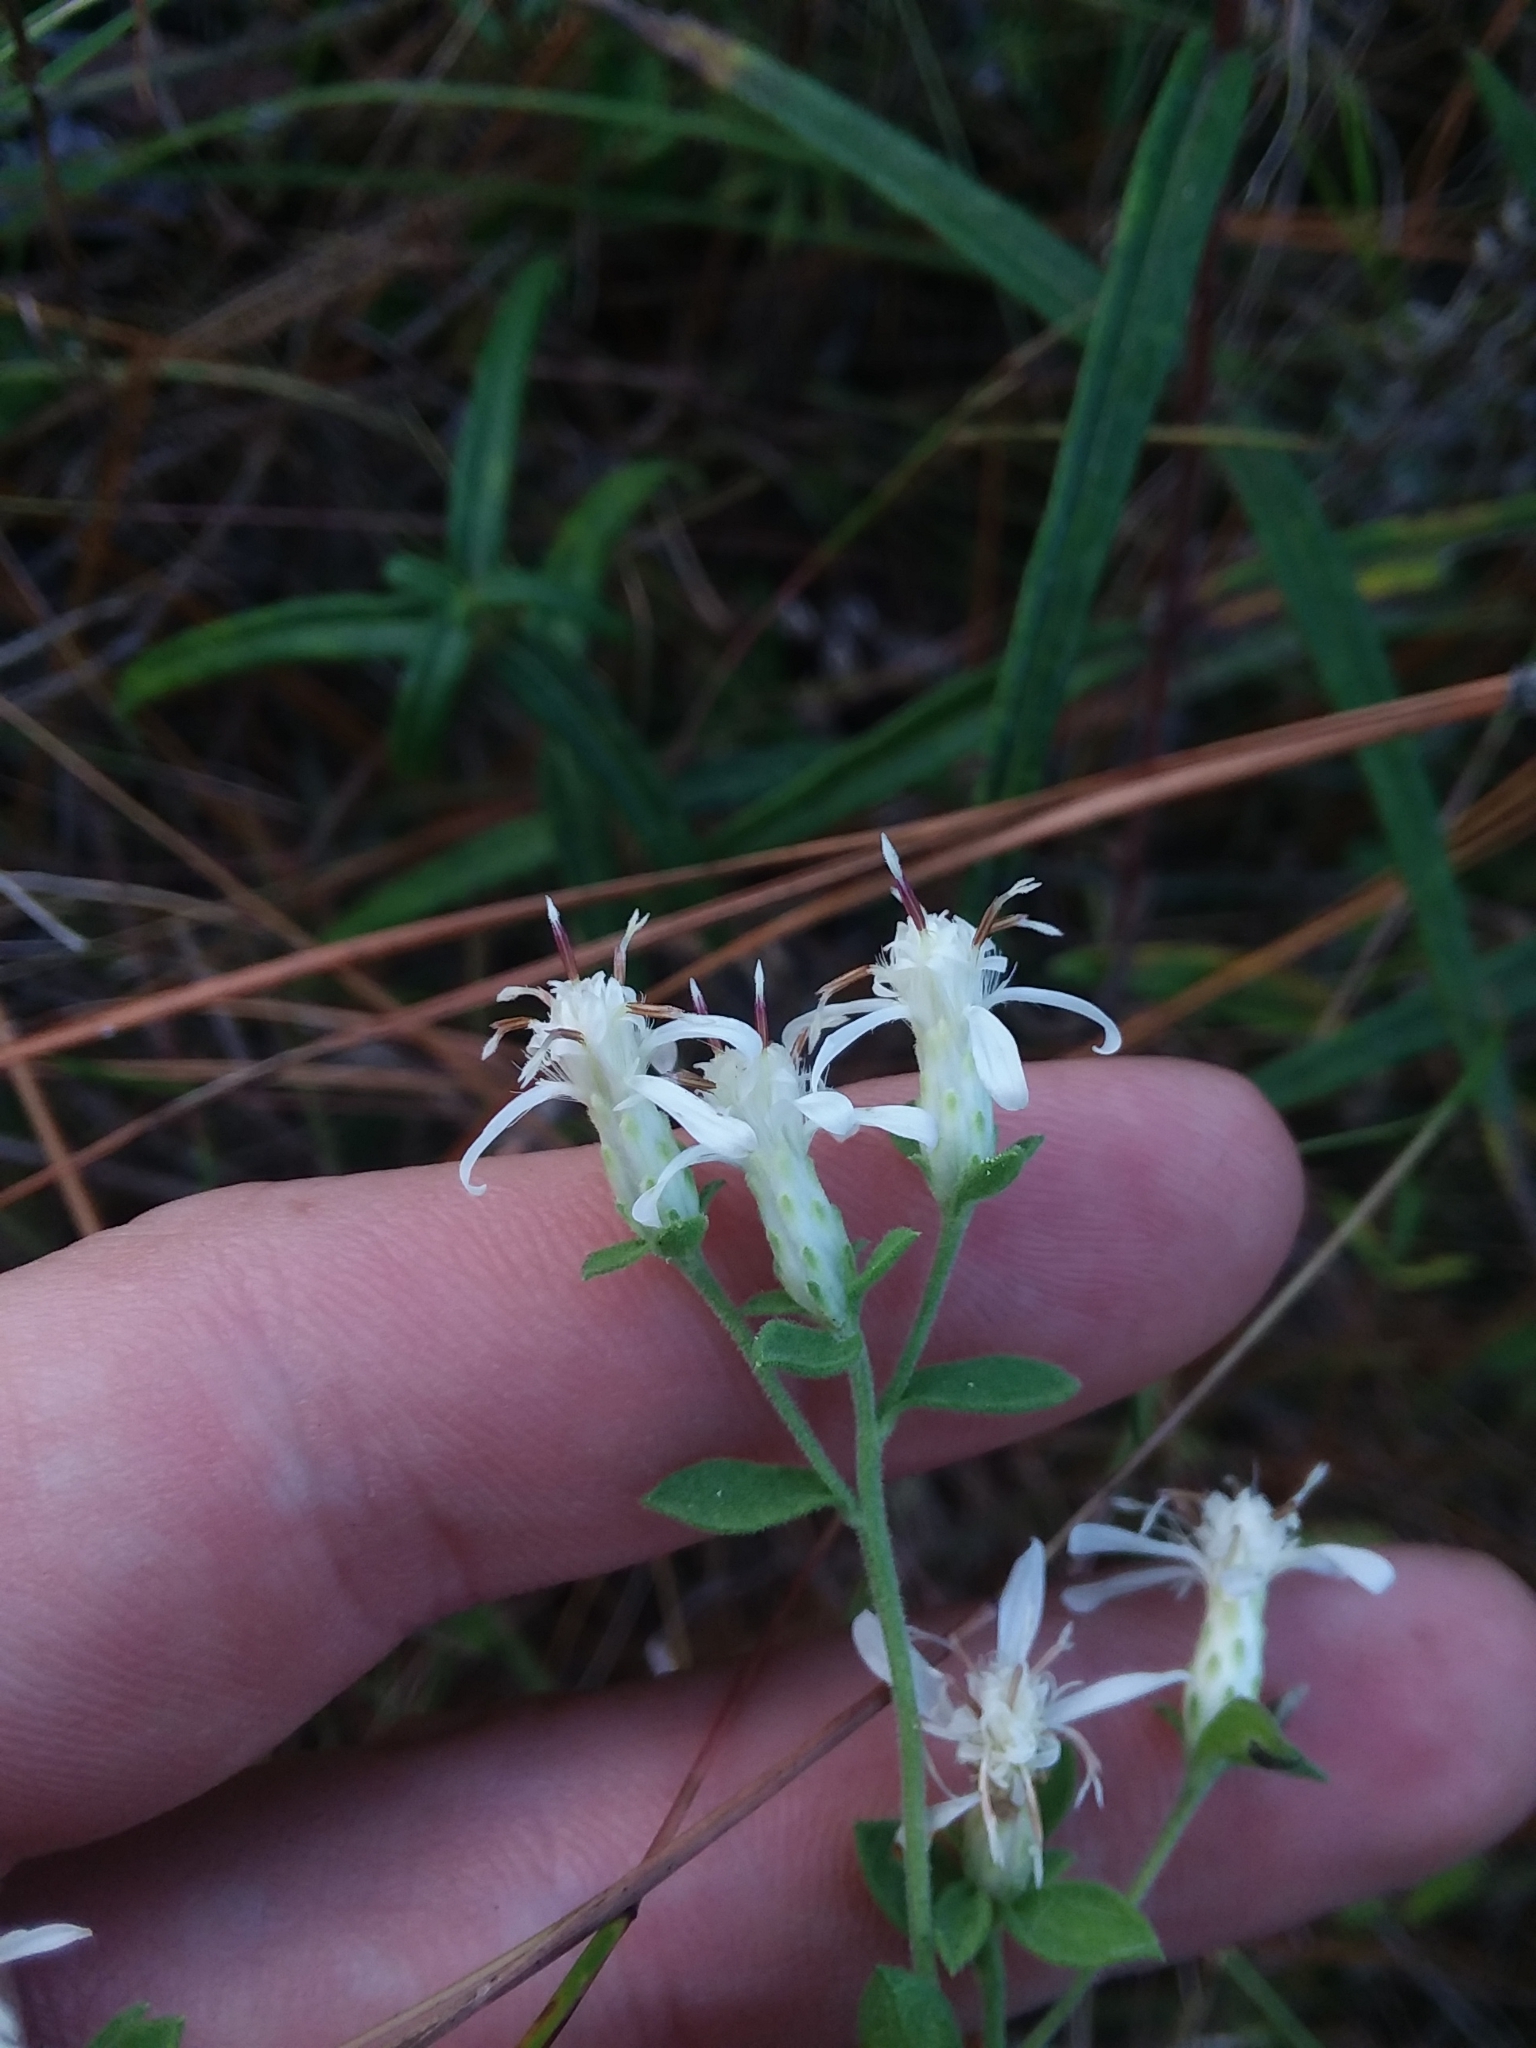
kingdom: Plantae
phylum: Tracheophyta
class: Magnoliopsida
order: Asterales
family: Asteraceae
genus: Sericocarpus
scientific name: Sericocarpus tortifolius
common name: Dixie aster
